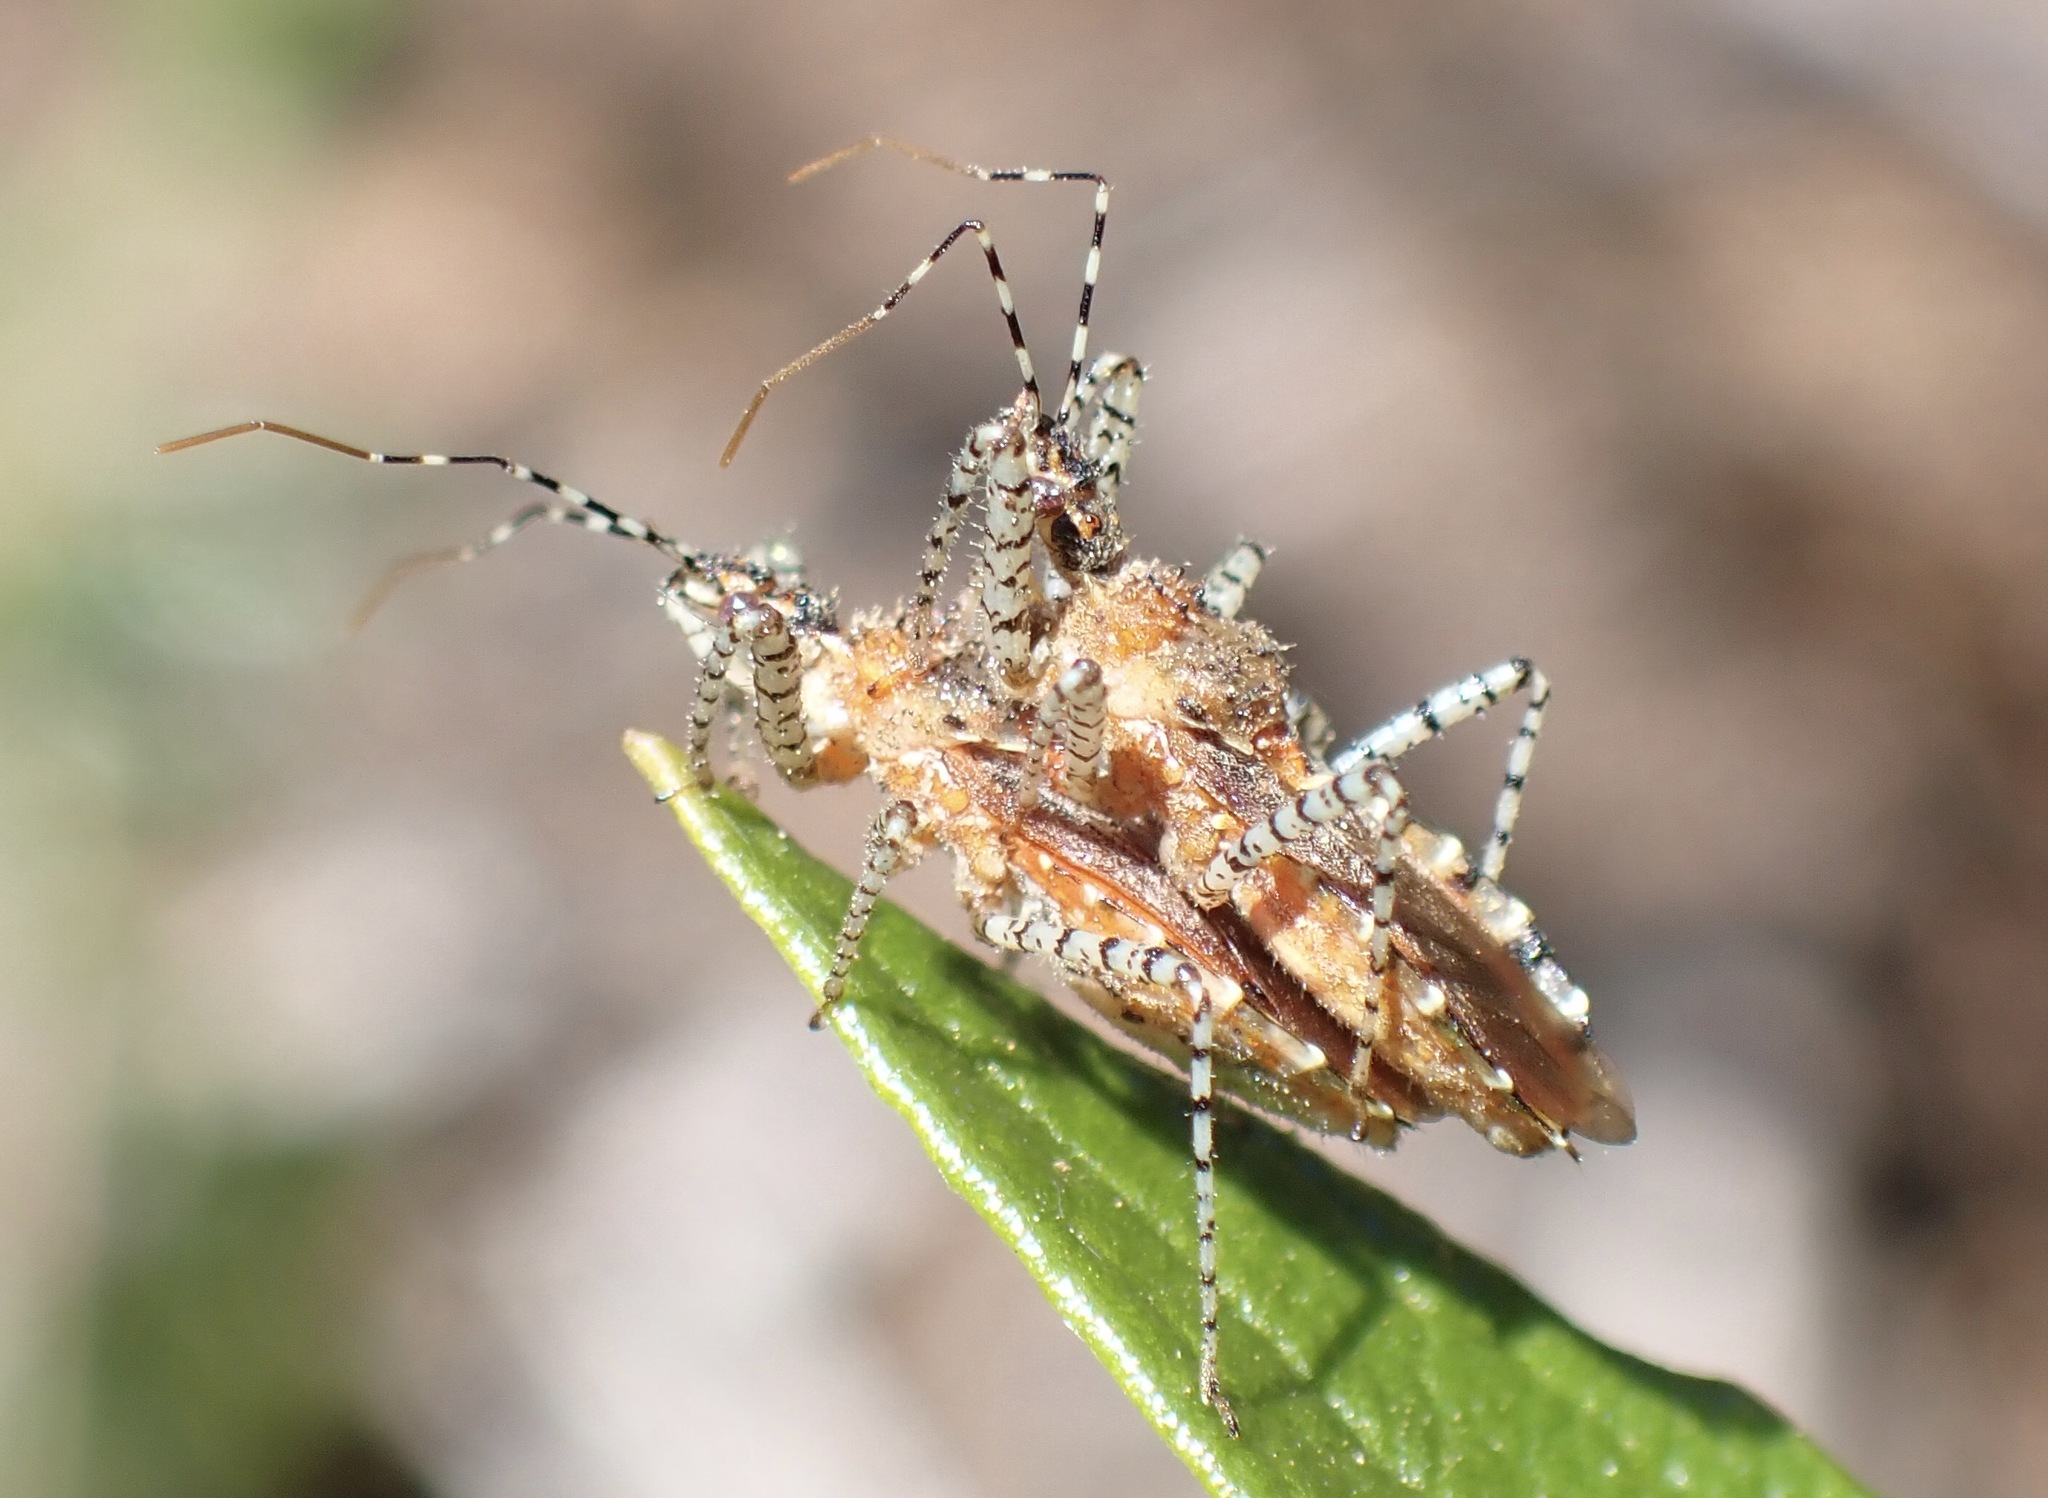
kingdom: Animalia
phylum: Arthropoda
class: Insecta
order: Hemiptera
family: Reduviidae
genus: Pselliopus
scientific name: Pselliopus spinicollis
